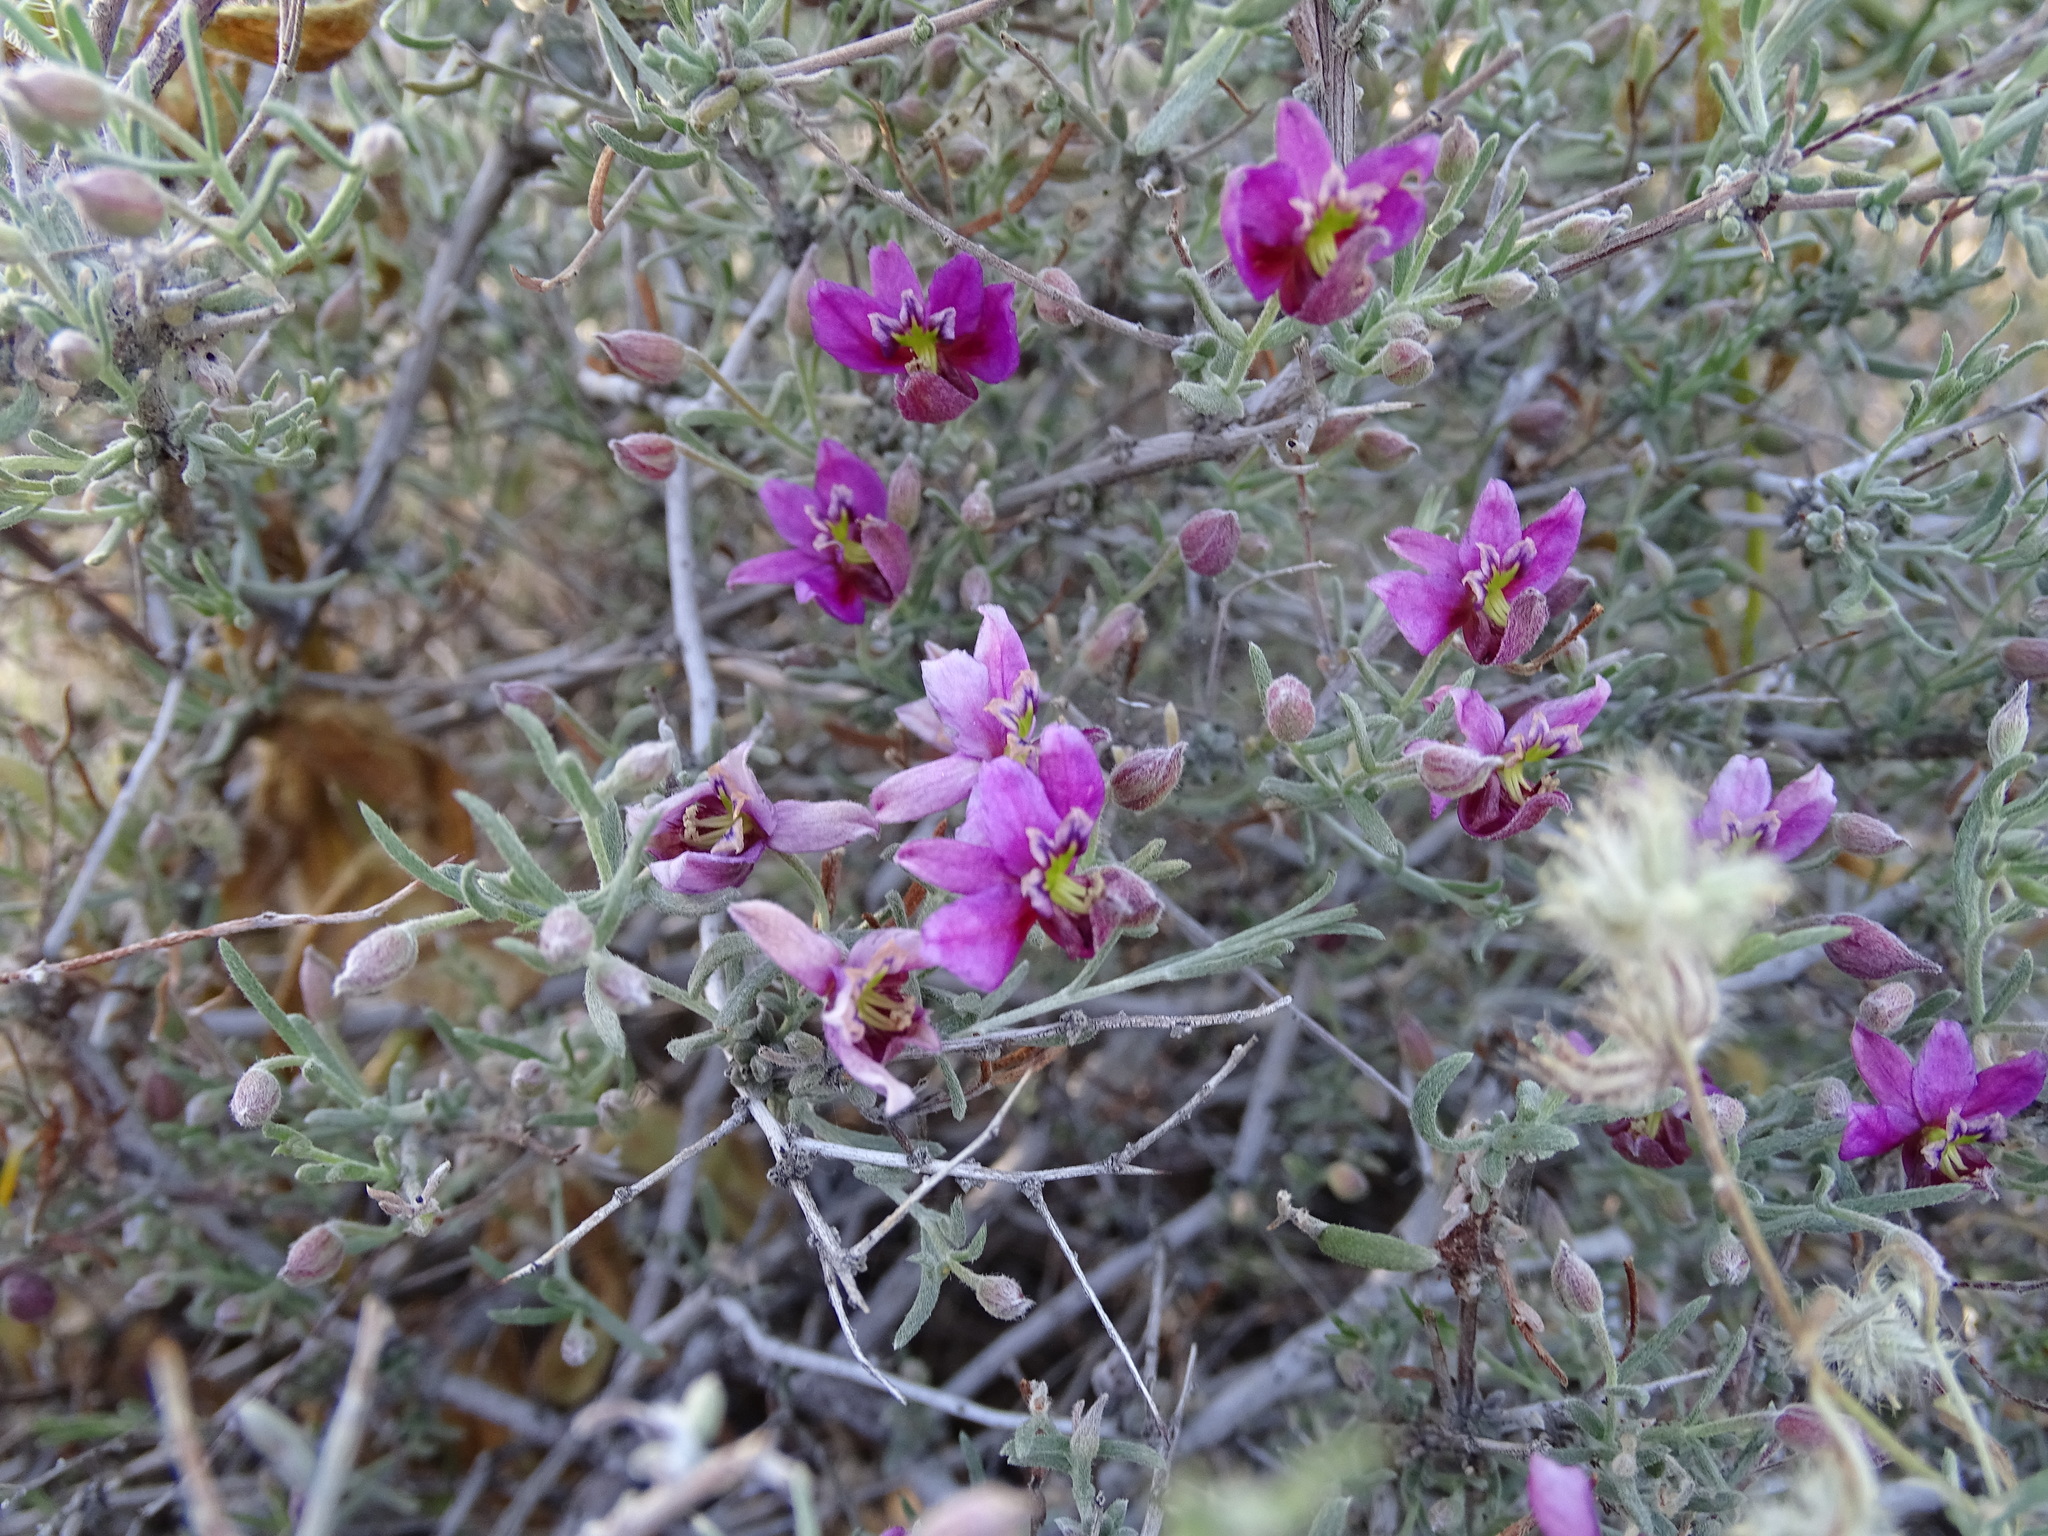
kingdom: Plantae
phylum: Tracheophyta
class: Magnoliopsida
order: Zygophyllales
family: Krameriaceae
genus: Krameria
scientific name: Krameria erecta
